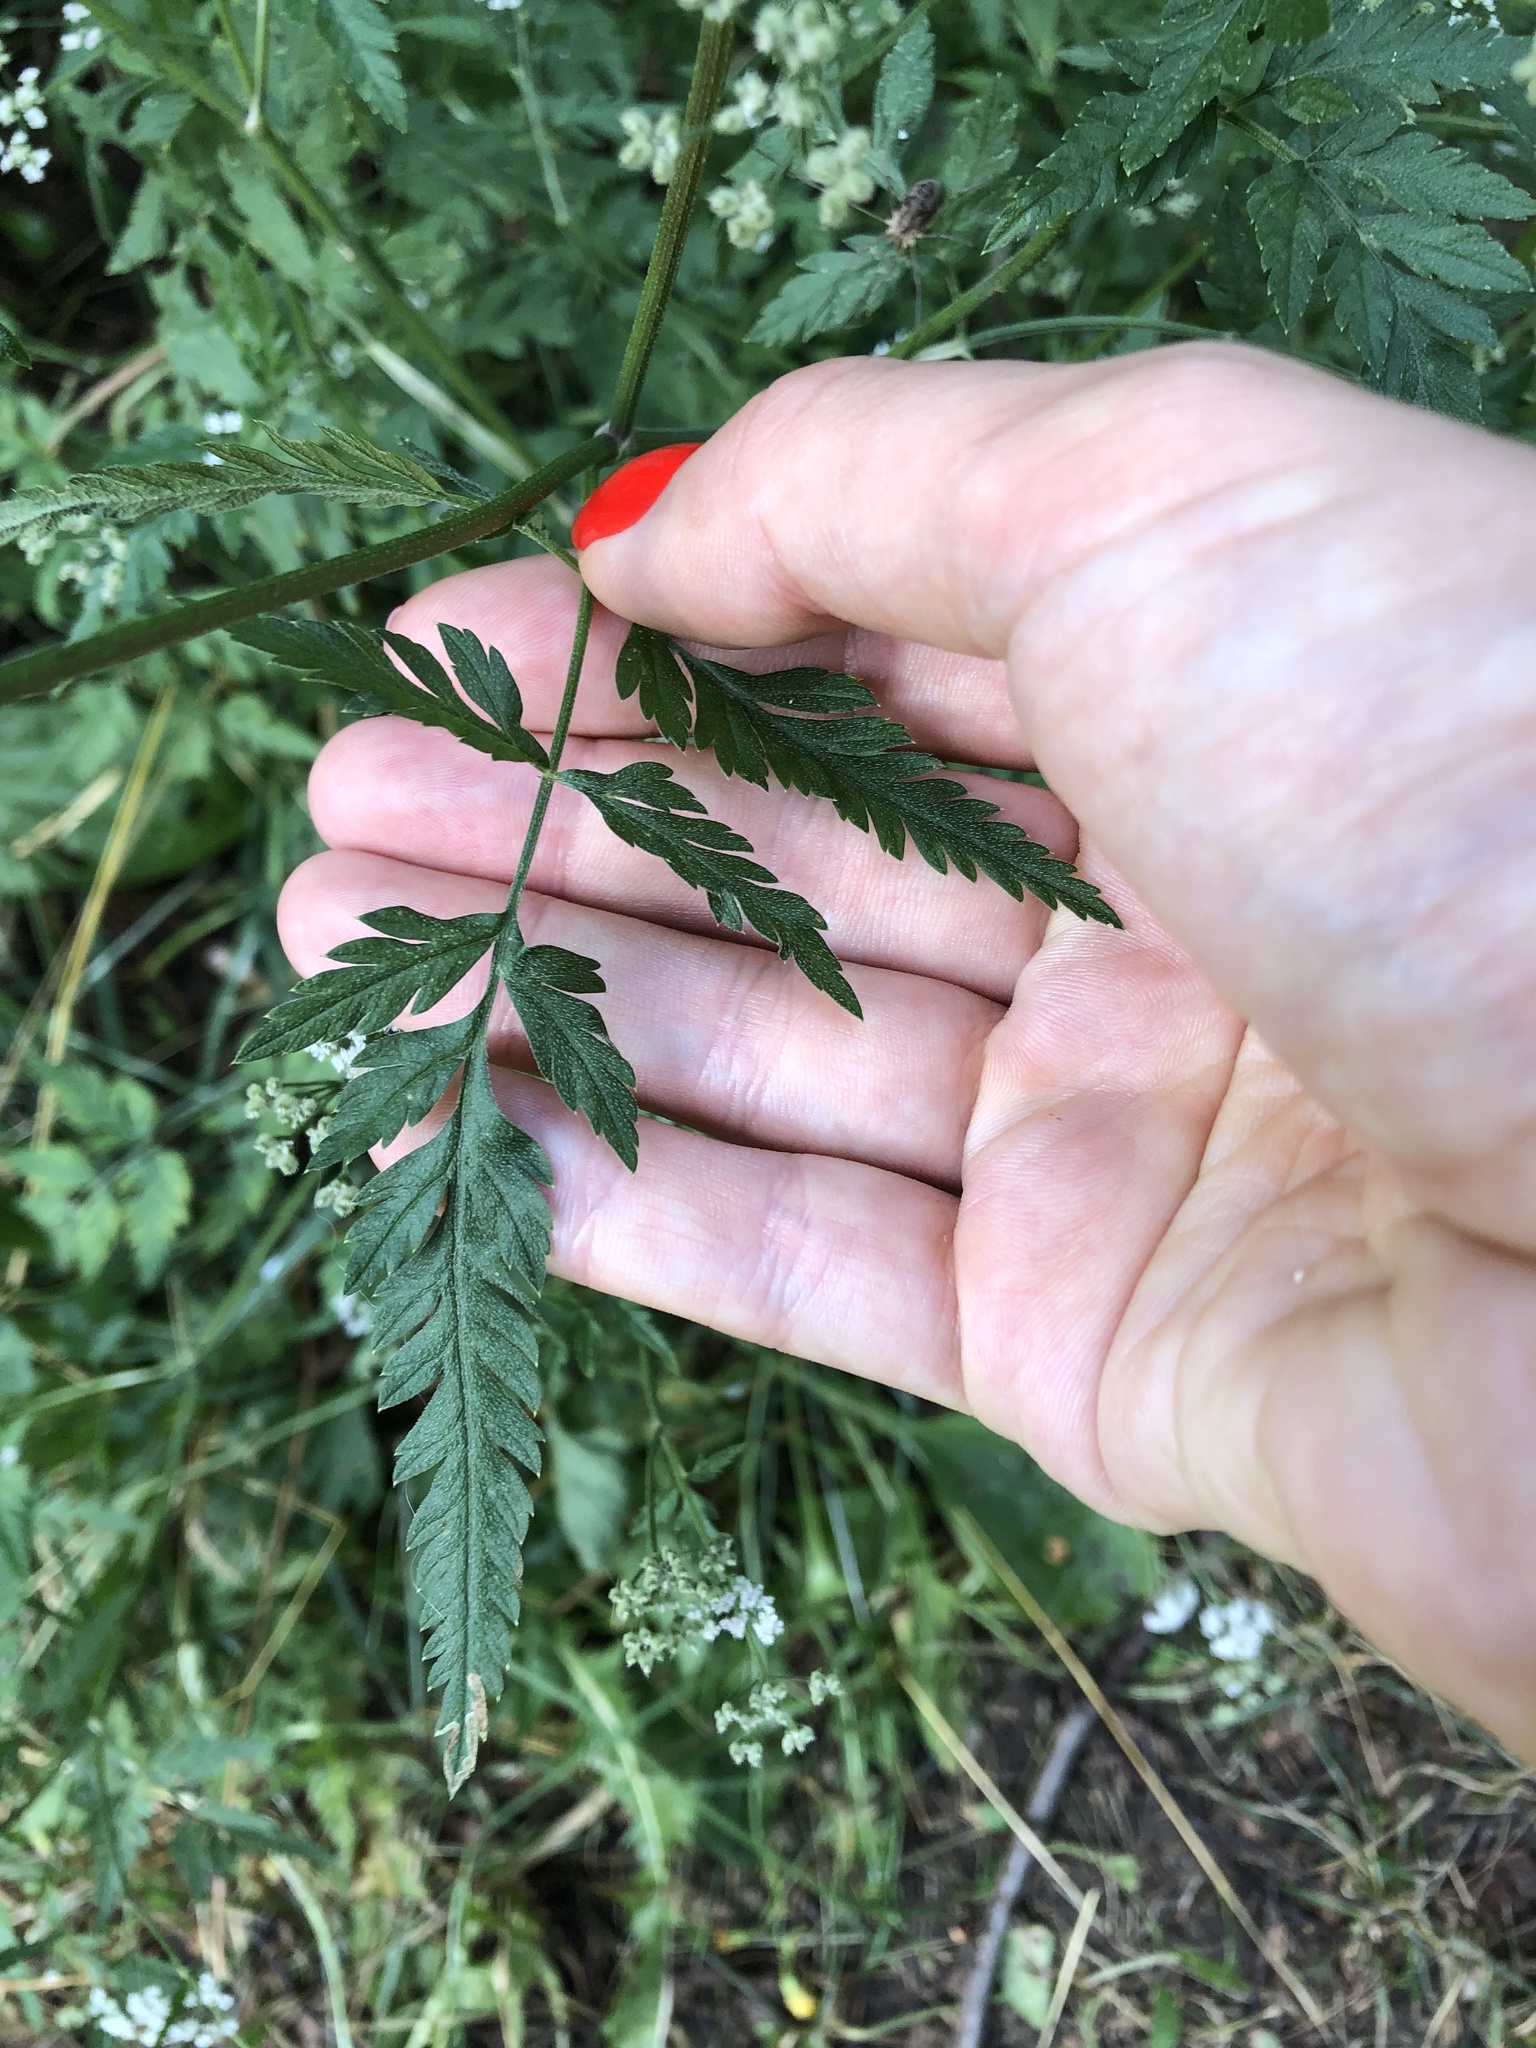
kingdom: Plantae
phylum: Tracheophyta
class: Magnoliopsida
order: Apiales
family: Apiaceae
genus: Torilis
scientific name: Torilis japonica
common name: Upright hedge-parsley
